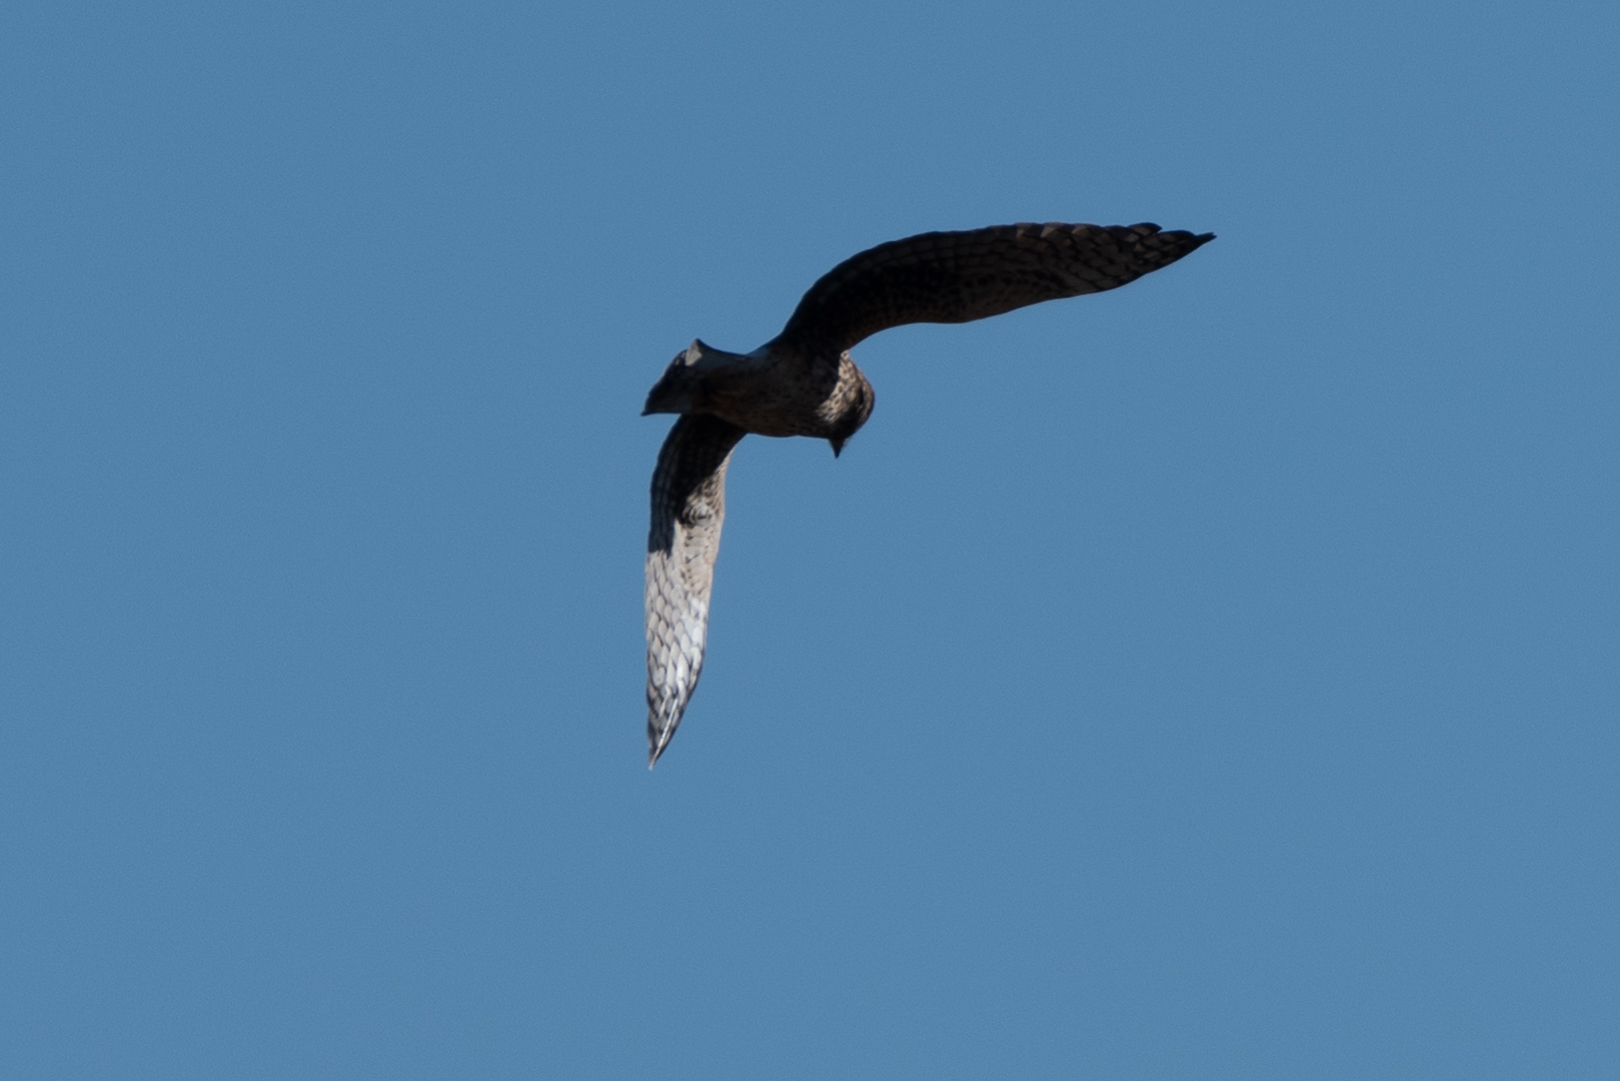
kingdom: Animalia
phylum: Chordata
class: Aves
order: Accipitriformes
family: Accipitridae
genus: Circus
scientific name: Circus cyaneus
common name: Hen harrier
